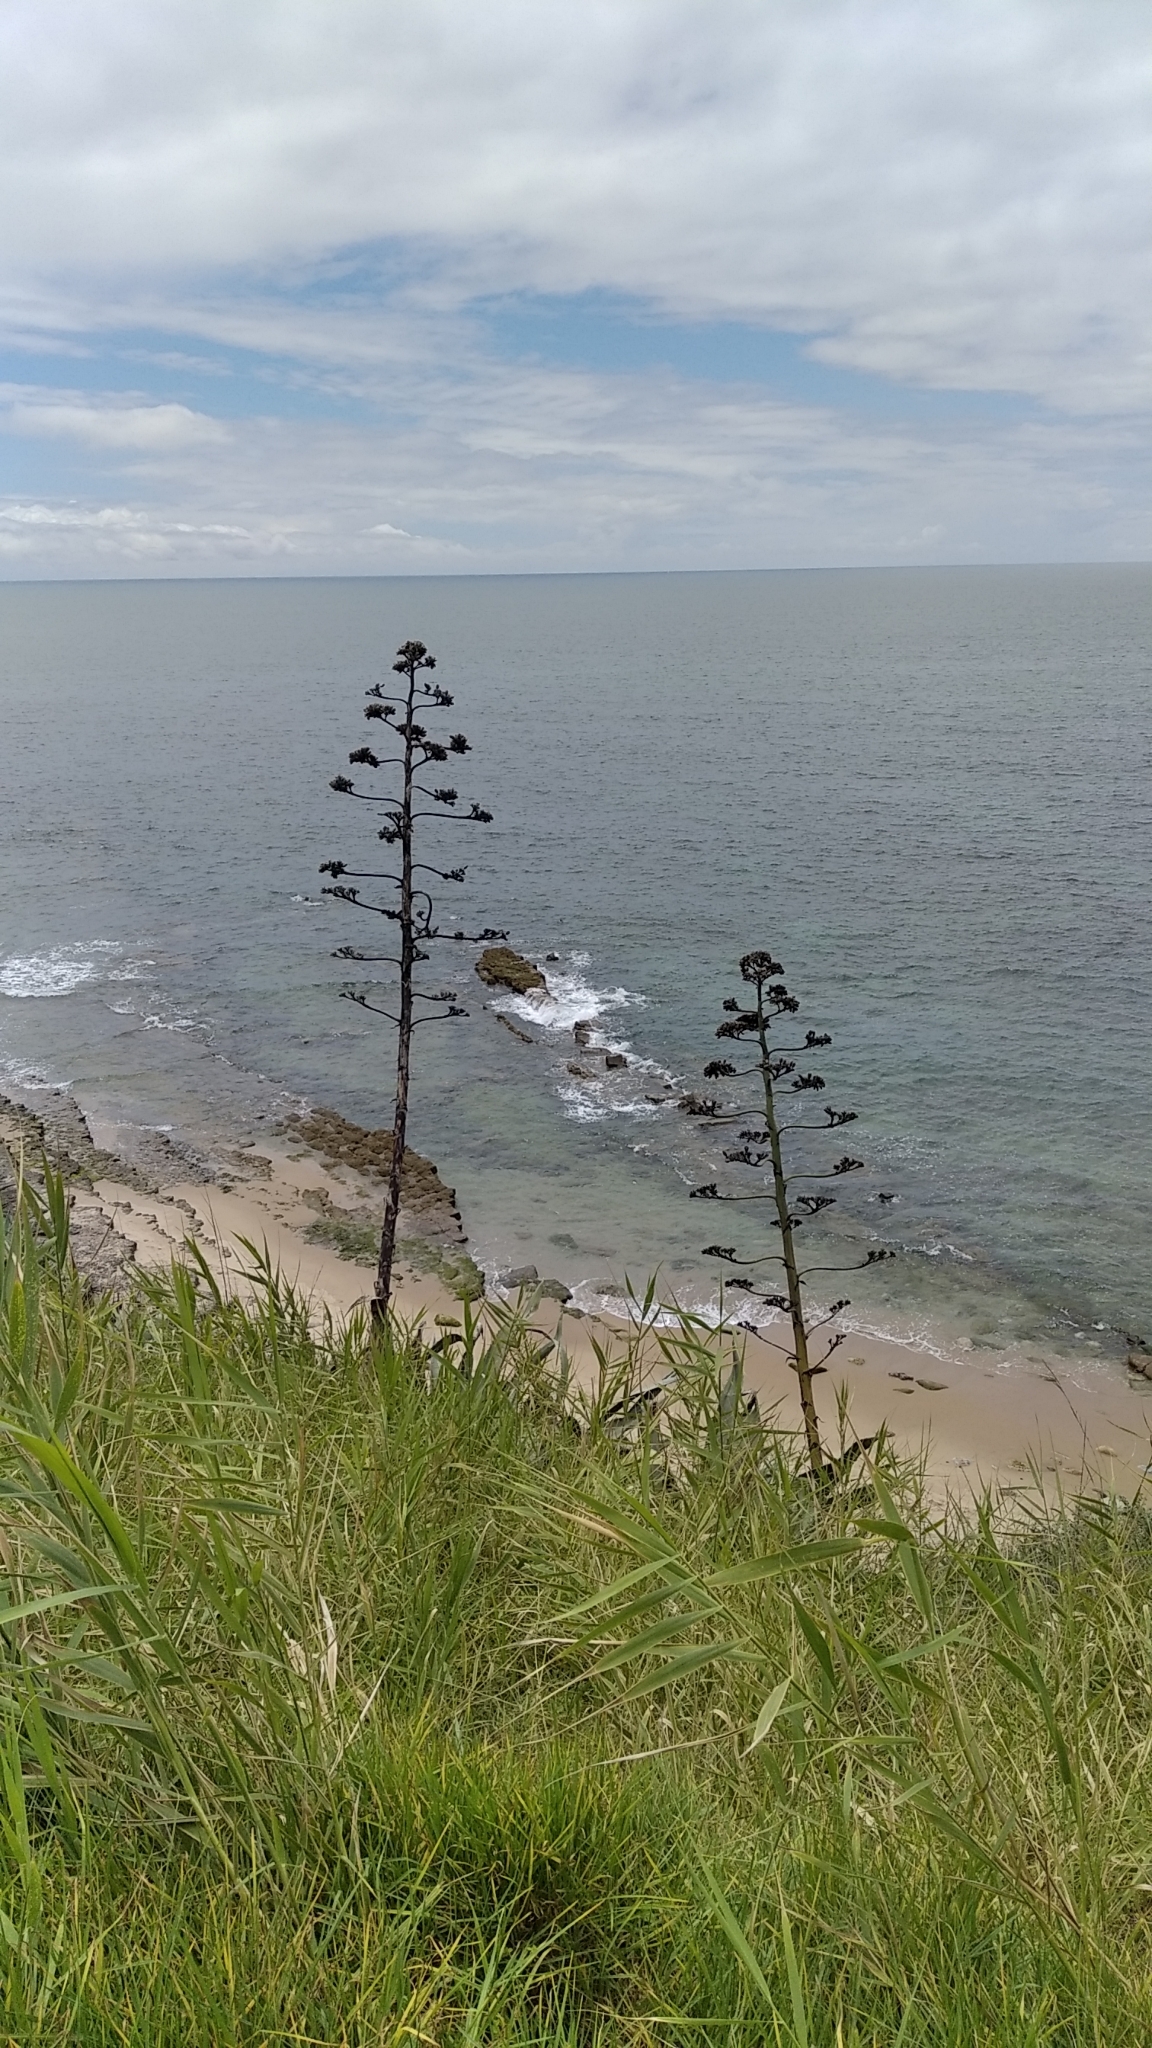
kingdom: Plantae
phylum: Tracheophyta
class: Liliopsida
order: Asparagales
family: Asparagaceae
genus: Agave
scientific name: Agave americana
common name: Centuryplant
